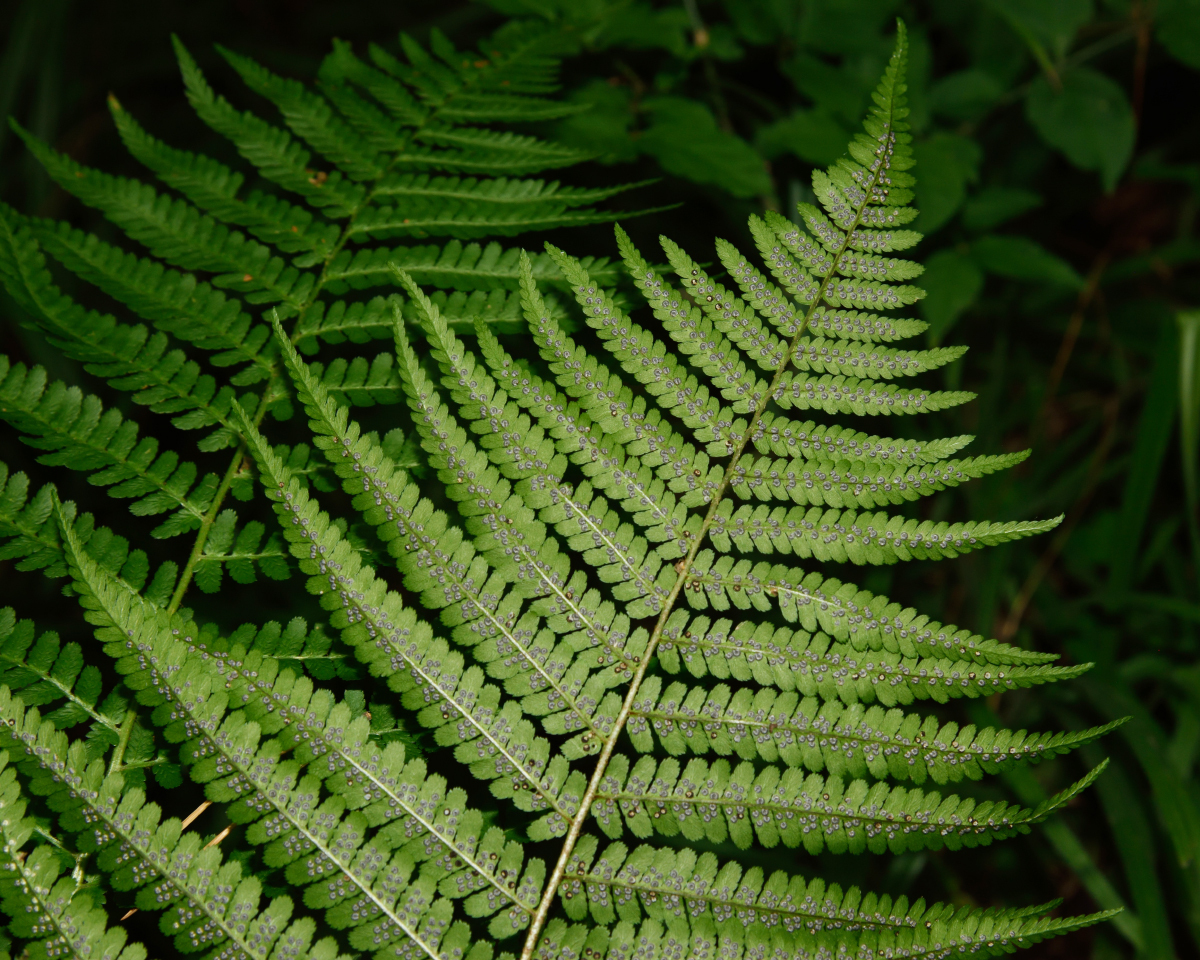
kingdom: Plantae
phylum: Tracheophyta
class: Polypodiopsida
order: Polypodiales
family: Dryopteridaceae
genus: Dryopteris
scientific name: Dryopteris filix-mas
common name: Male fern
